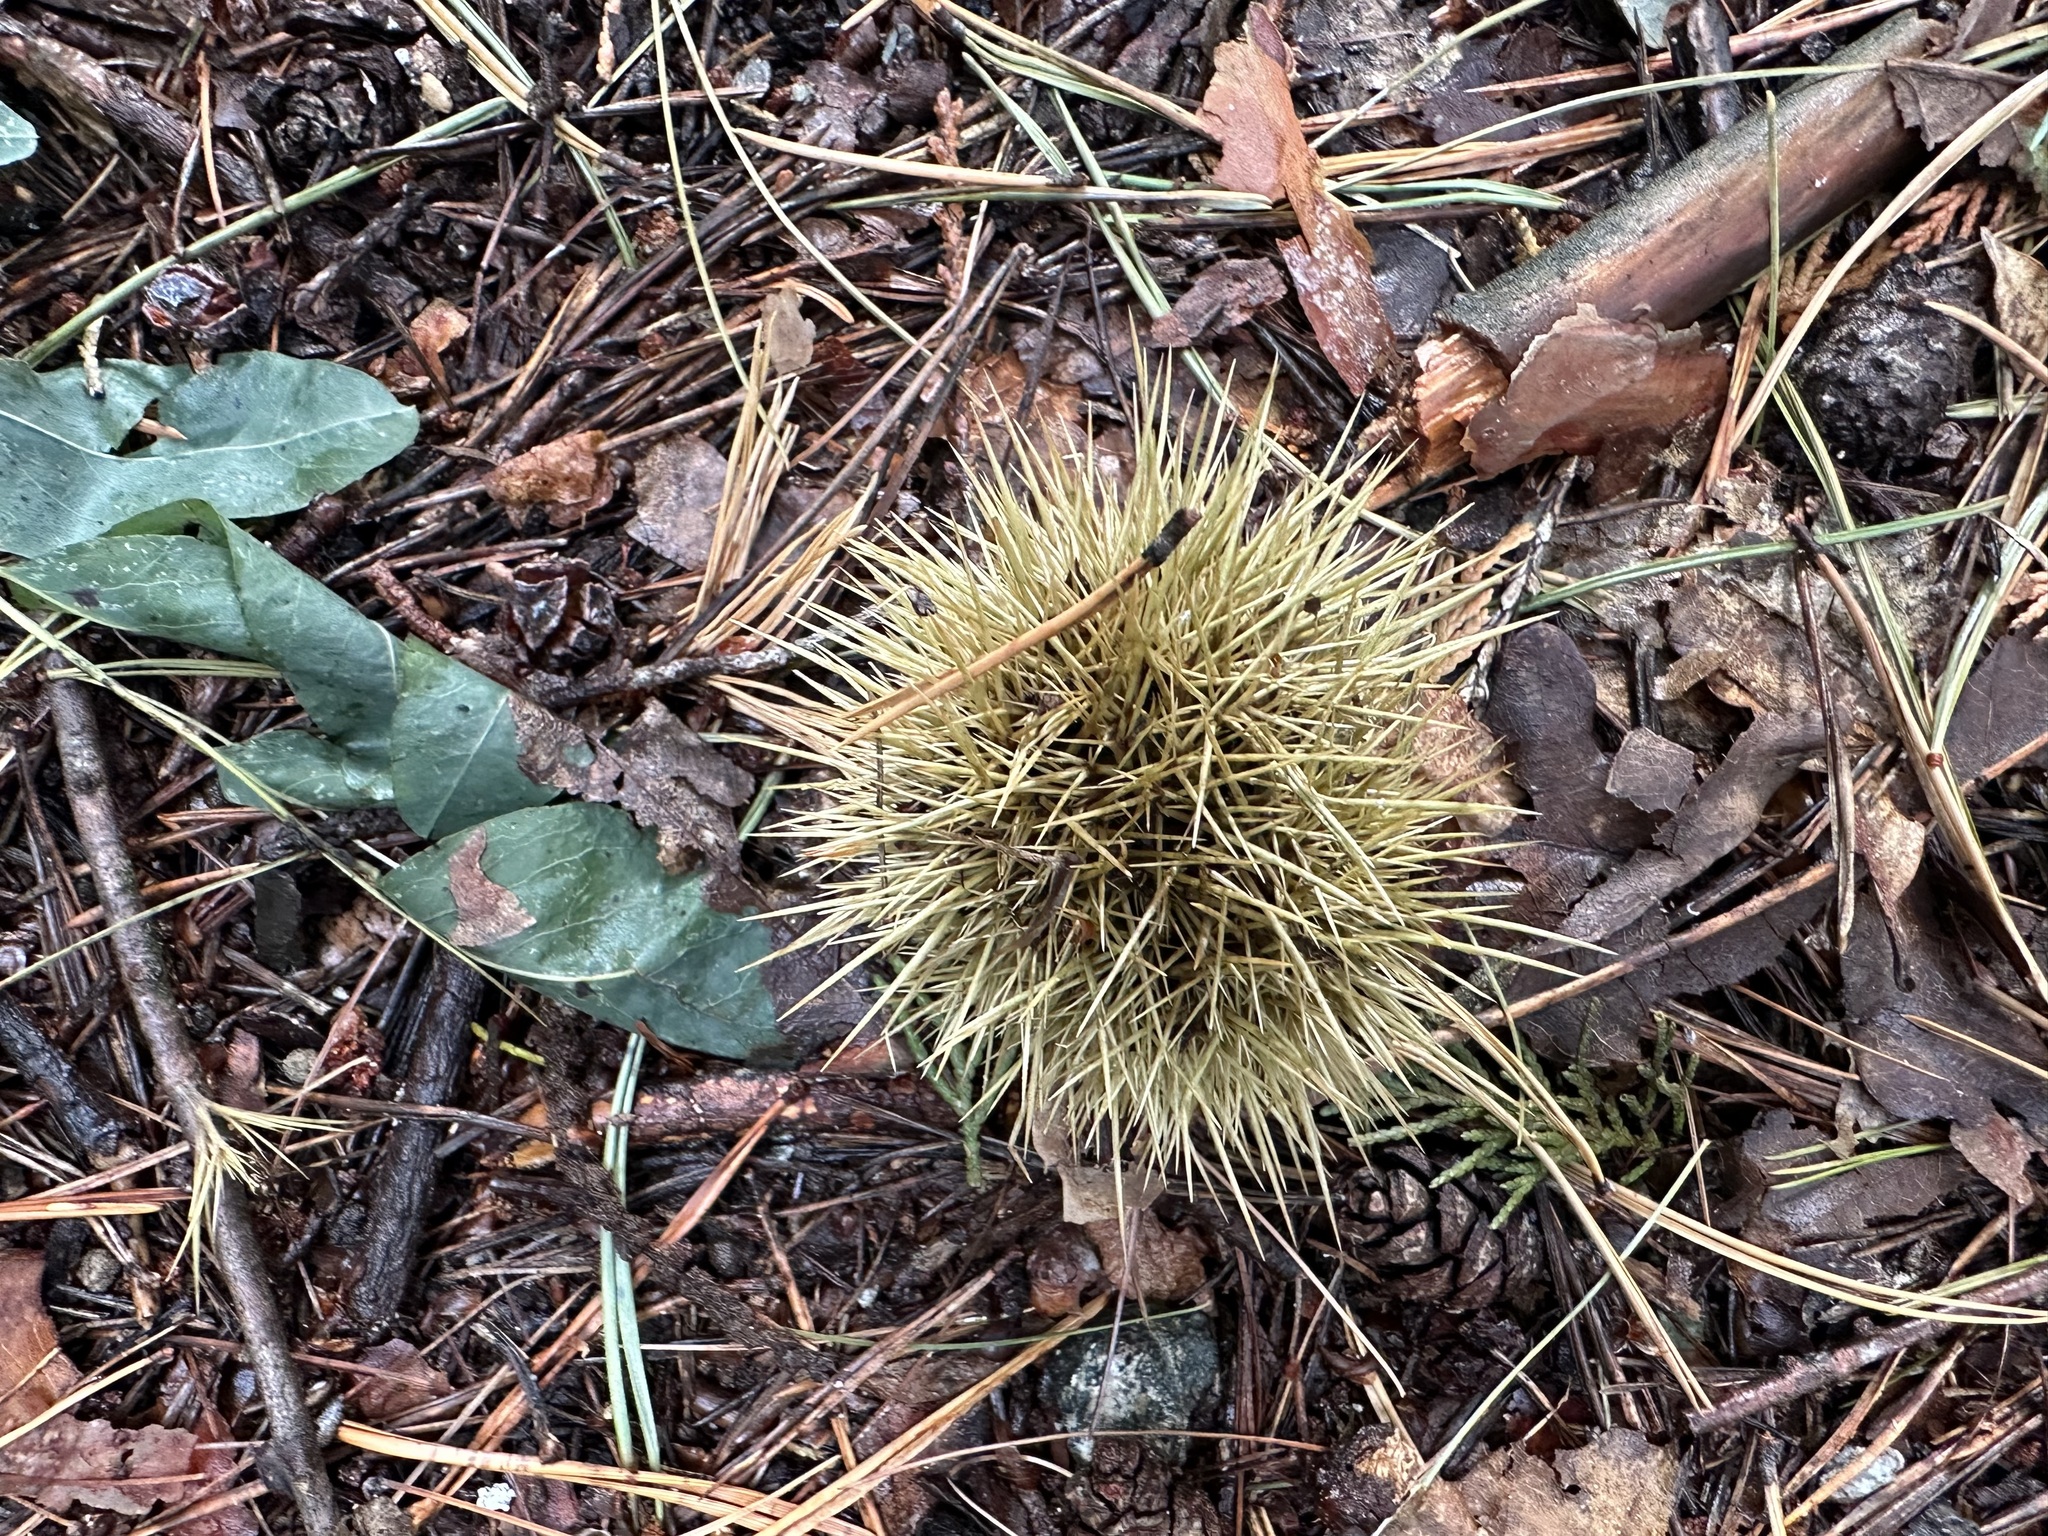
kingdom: Plantae
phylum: Tracheophyta
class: Magnoliopsida
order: Fagales
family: Fagaceae
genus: Castanea
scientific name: Castanea sativa
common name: Sweet chestnut
